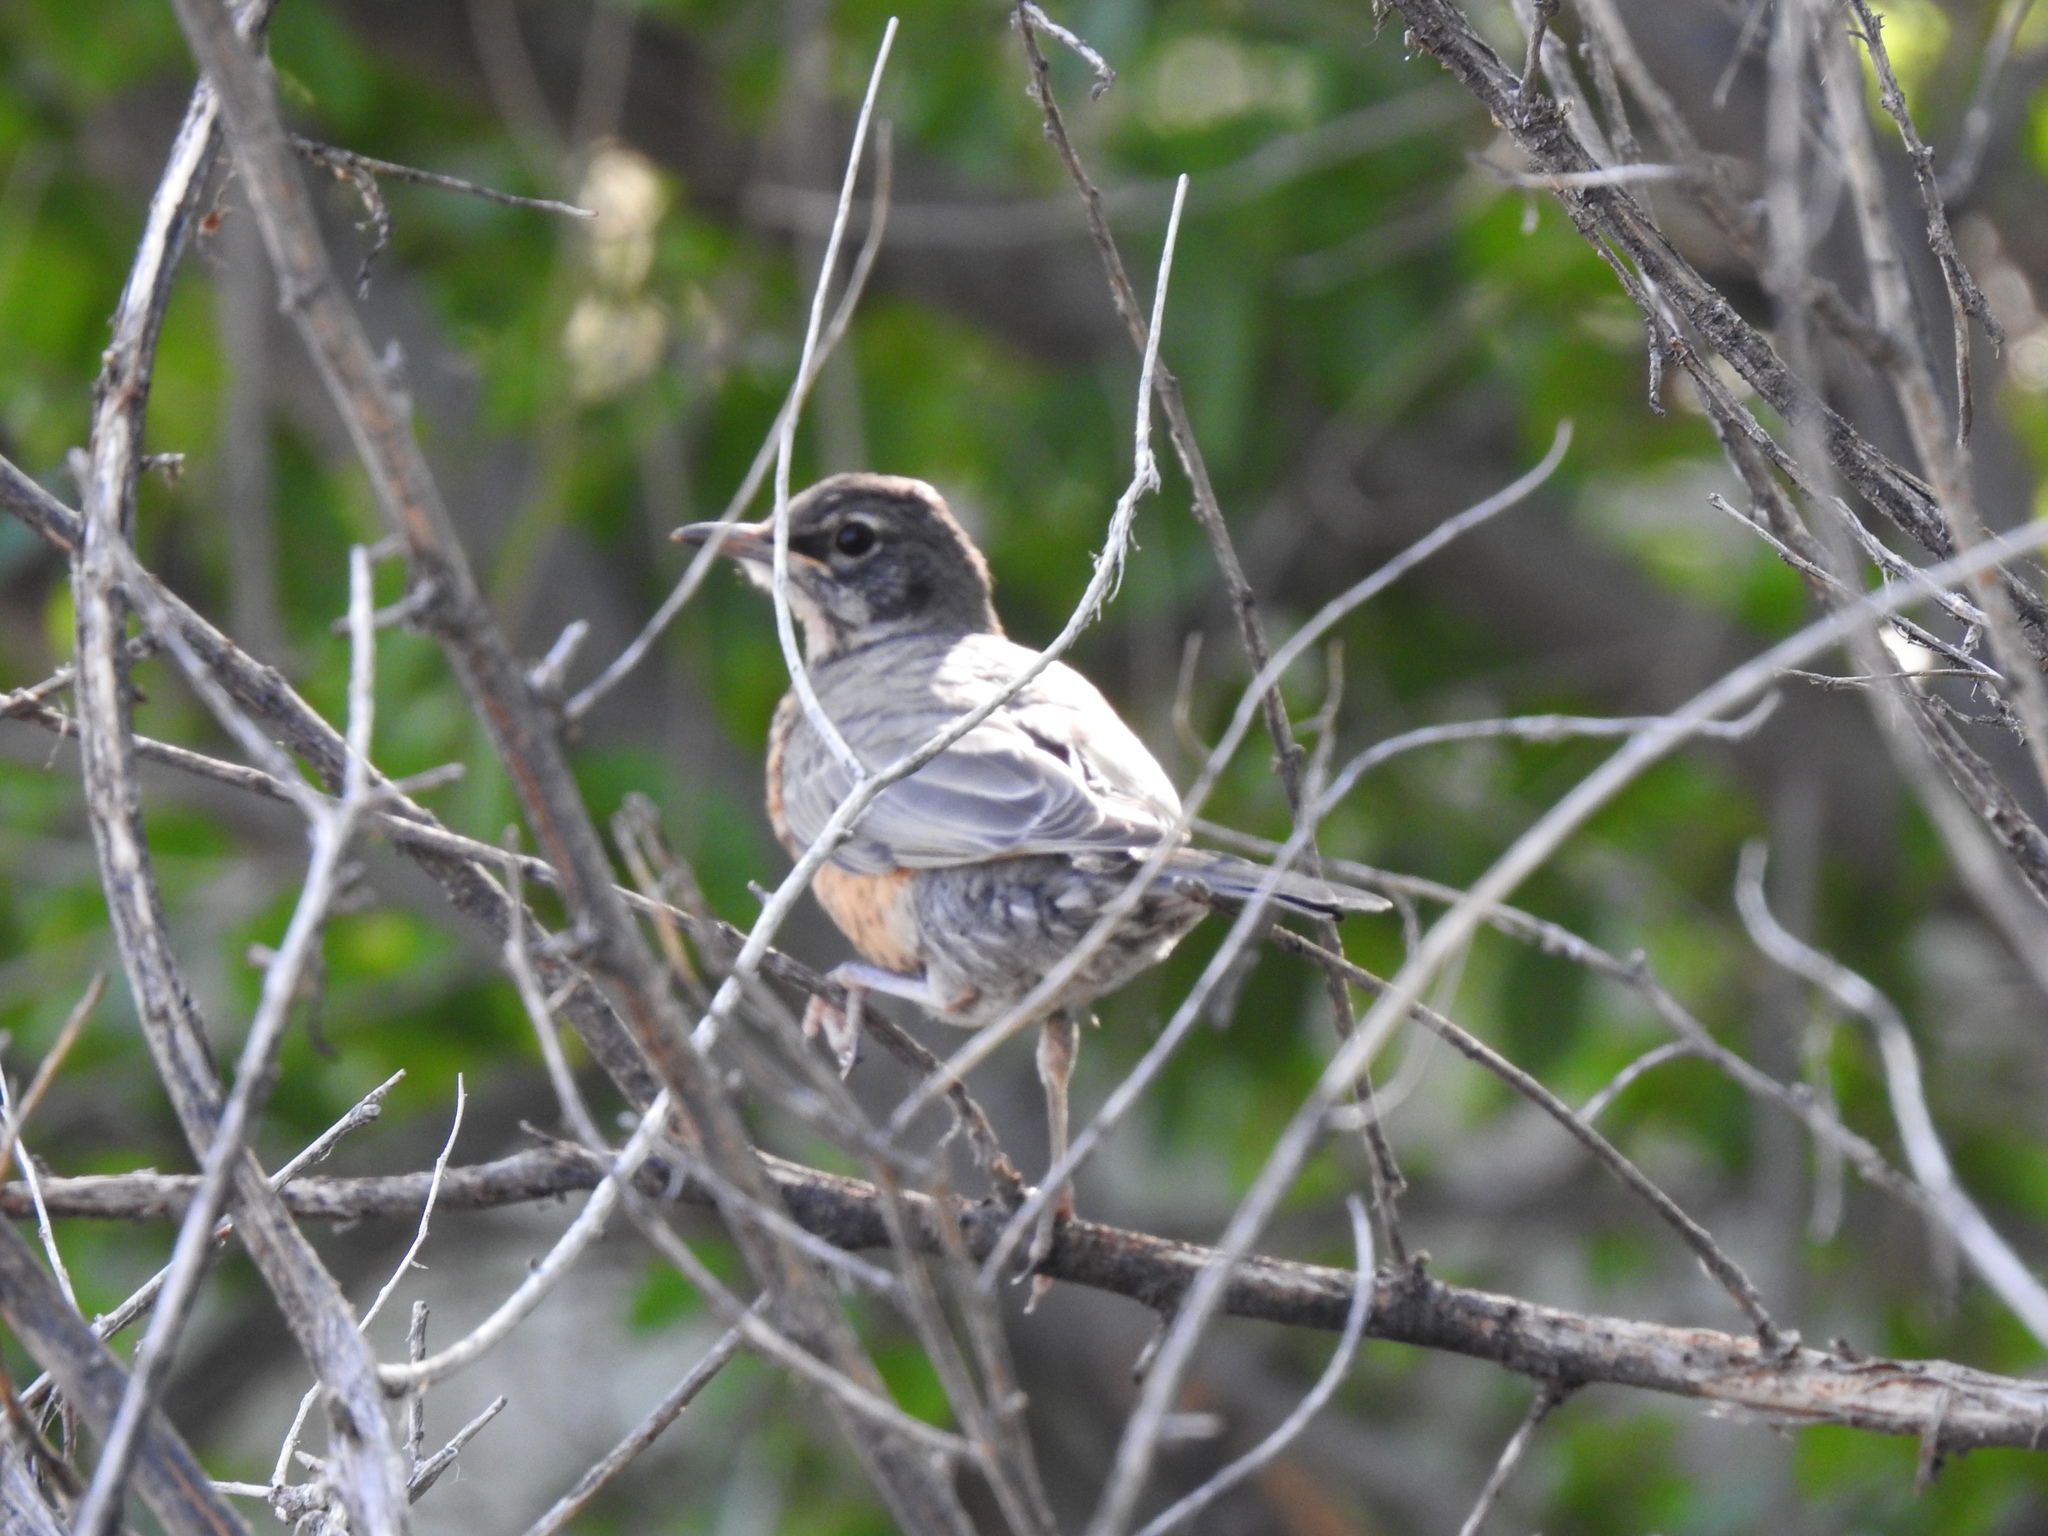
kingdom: Animalia
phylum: Chordata
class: Aves
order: Passeriformes
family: Turdidae
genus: Turdus
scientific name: Turdus migratorius
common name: American robin
